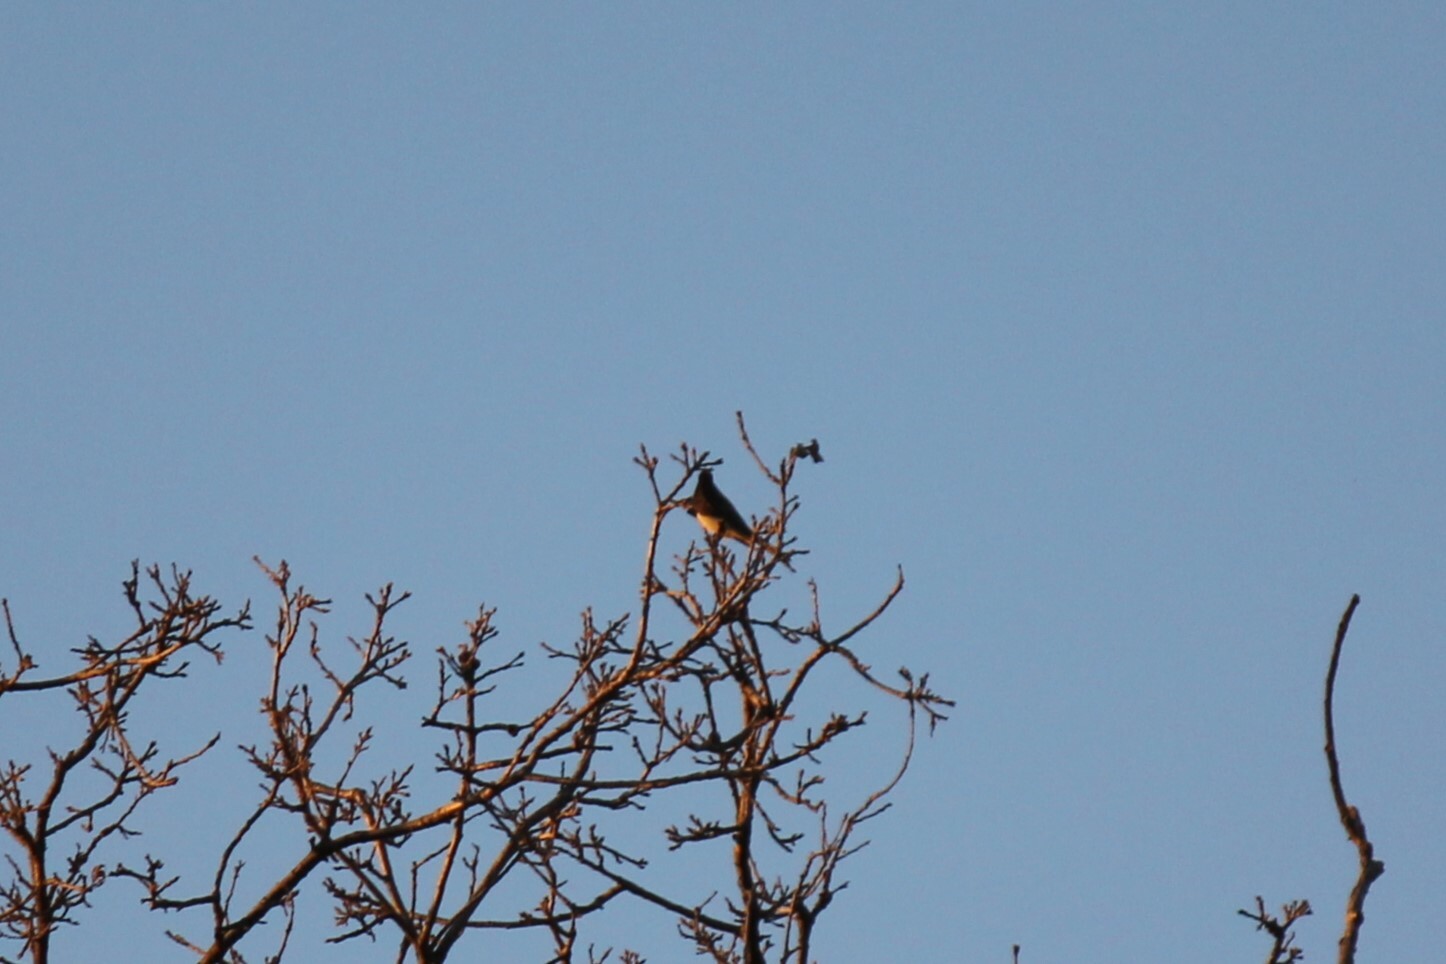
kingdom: Animalia
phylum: Chordata
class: Aves
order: Passeriformes
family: Tyrannidae
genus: Sayornis
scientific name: Sayornis nigricans
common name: Black phoebe
